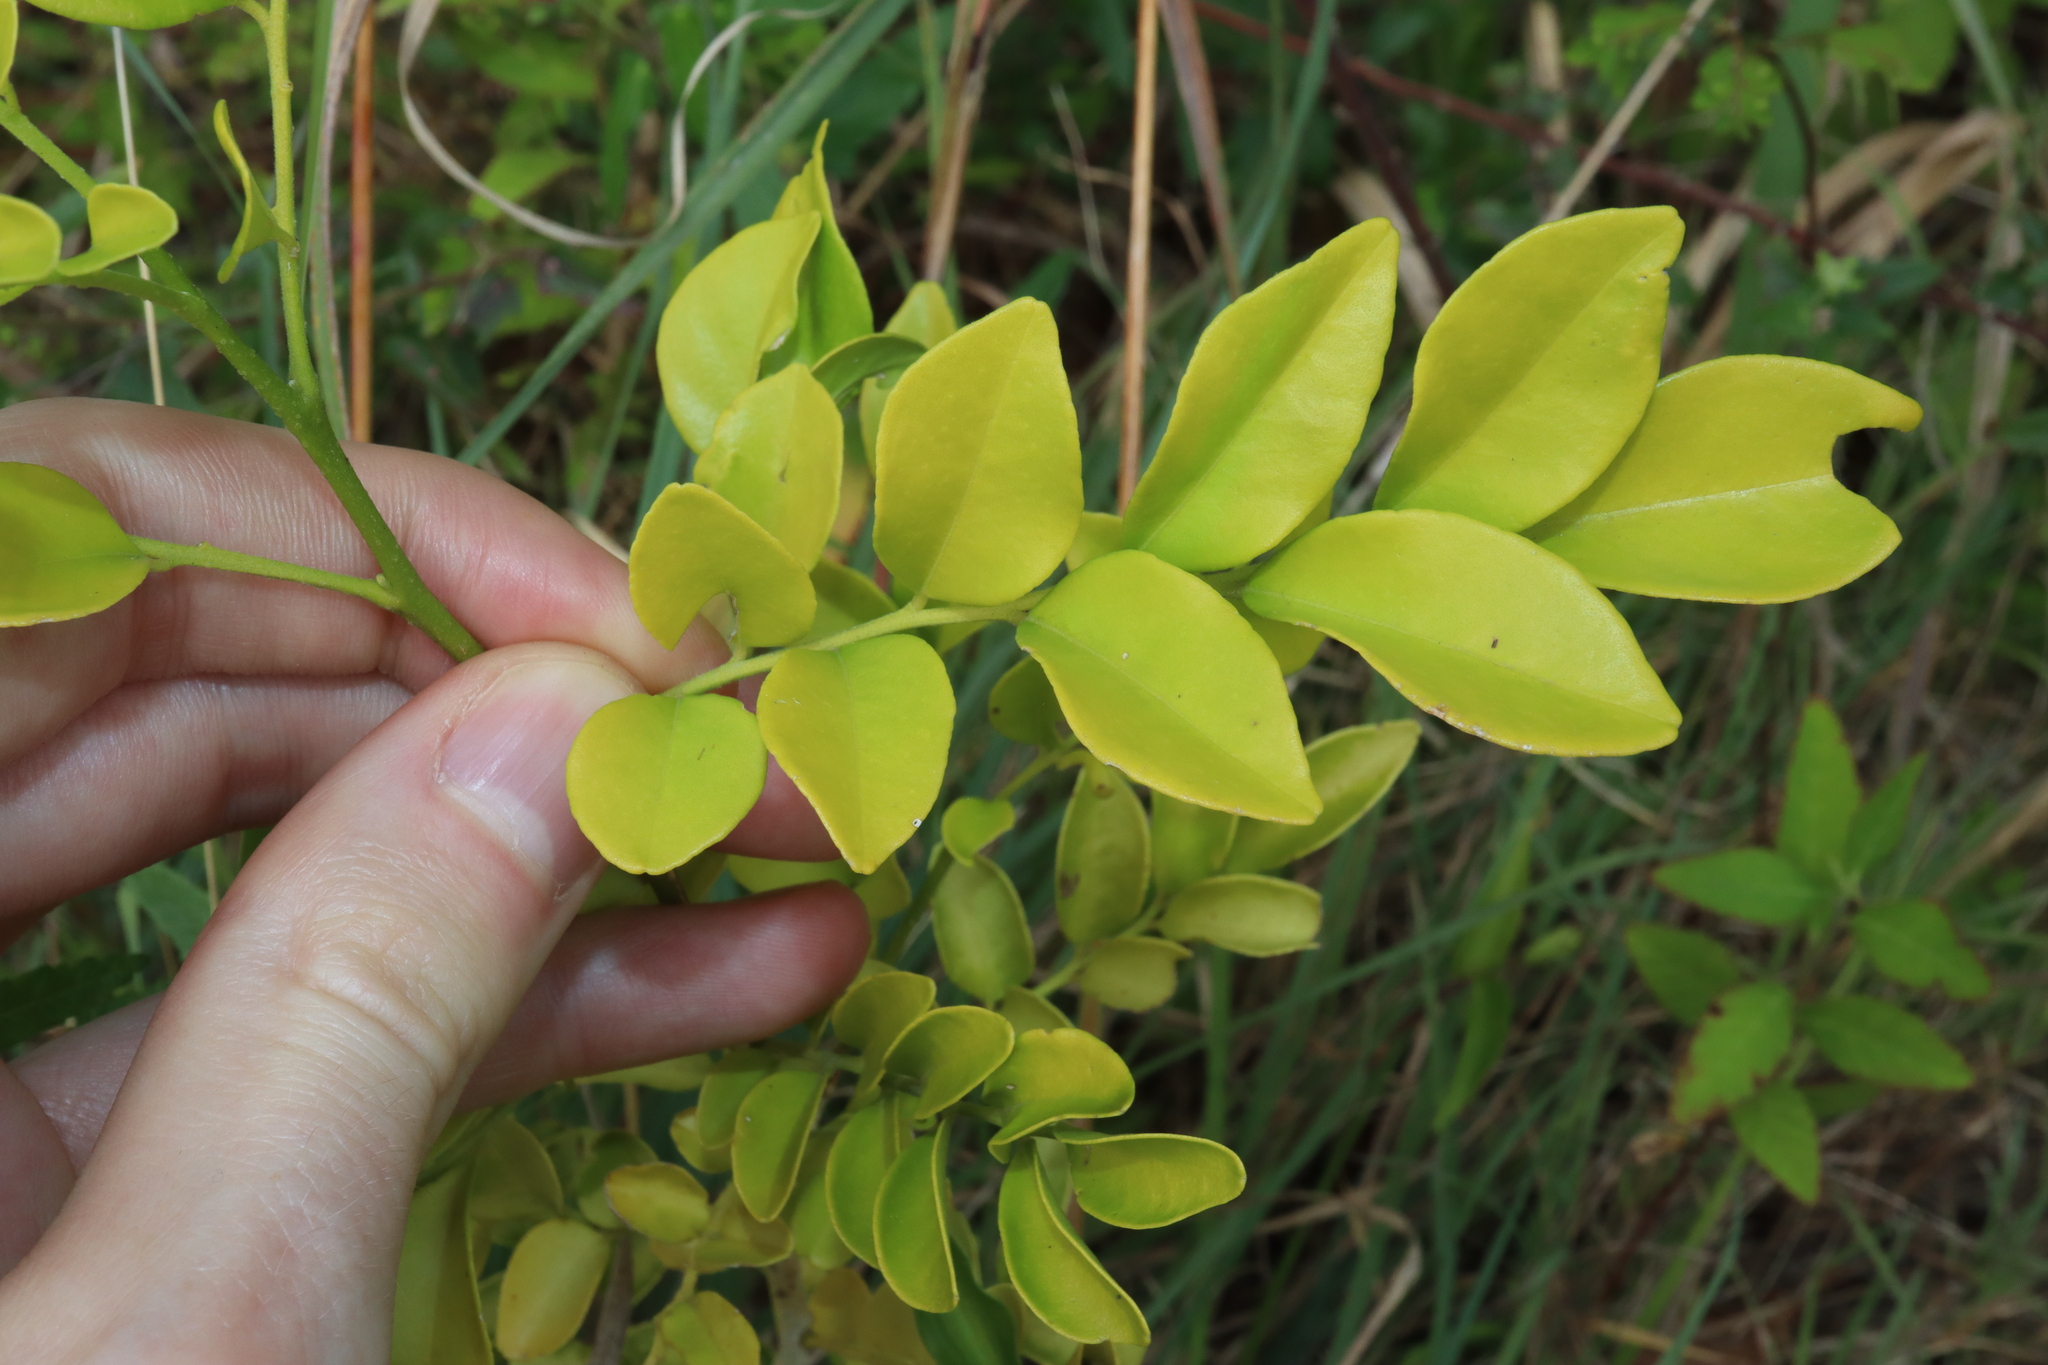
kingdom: Plantae
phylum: Tracheophyta
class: Magnoliopsida
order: Sapindales
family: Rutaceae
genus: Murraya
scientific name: Murraya paniculata
